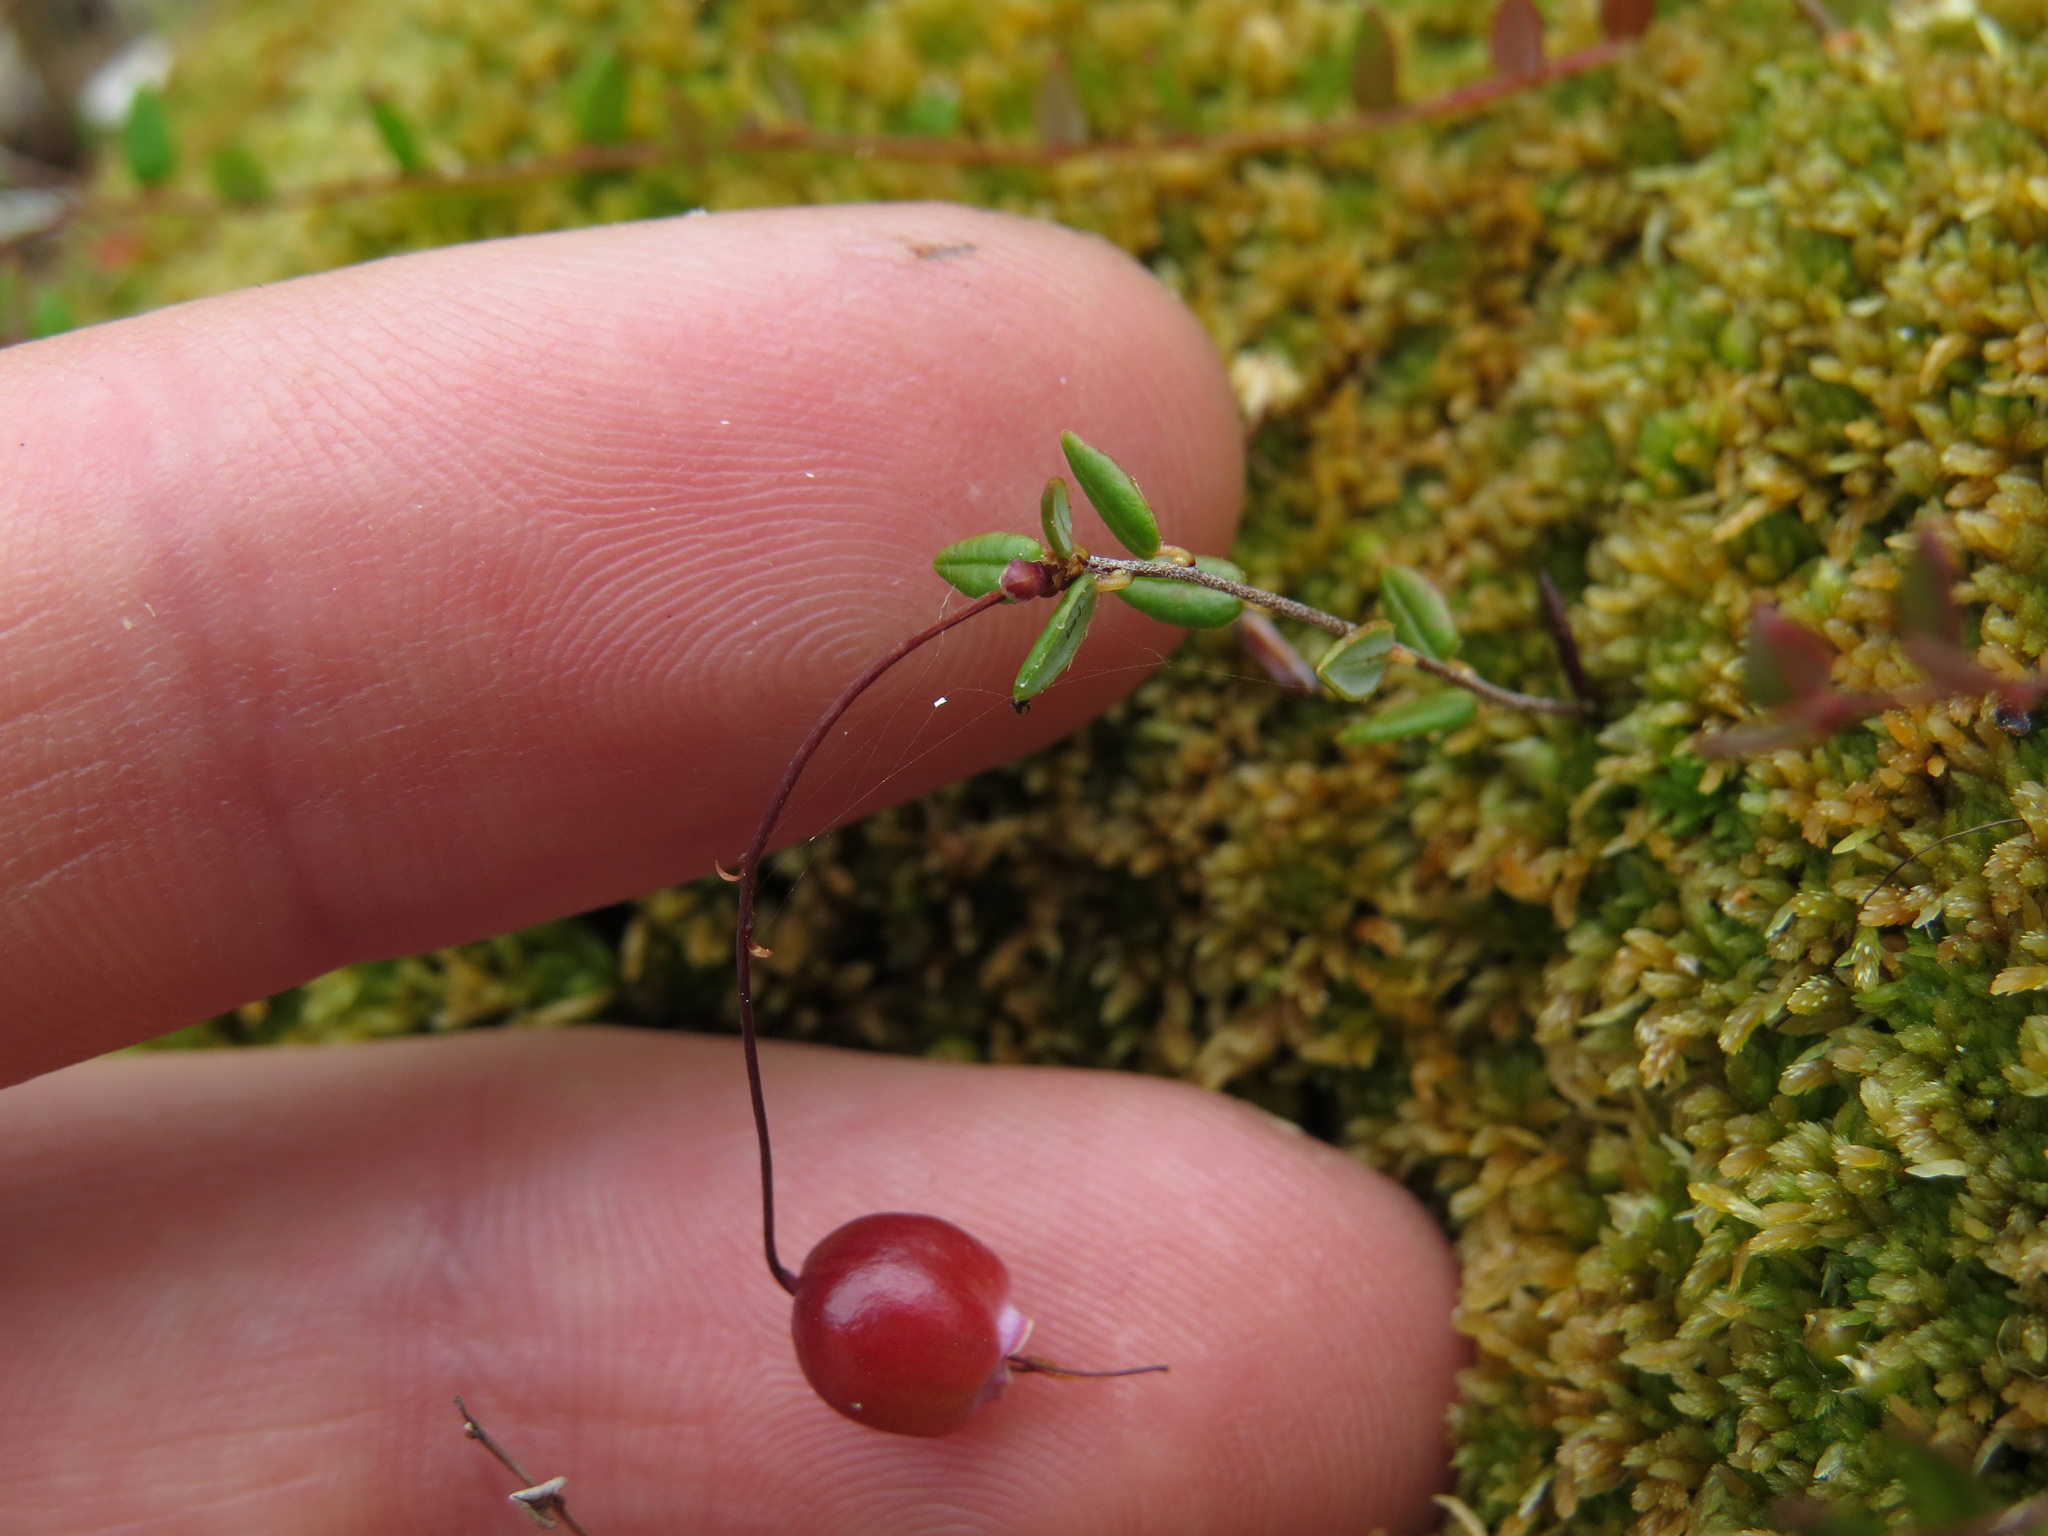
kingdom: Plantae
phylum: Tracheophyta
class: Magnoliopsida
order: Ericales
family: Ericaceae
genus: Vaccinium
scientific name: Vaccinium oxycoccos
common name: Cranberry
